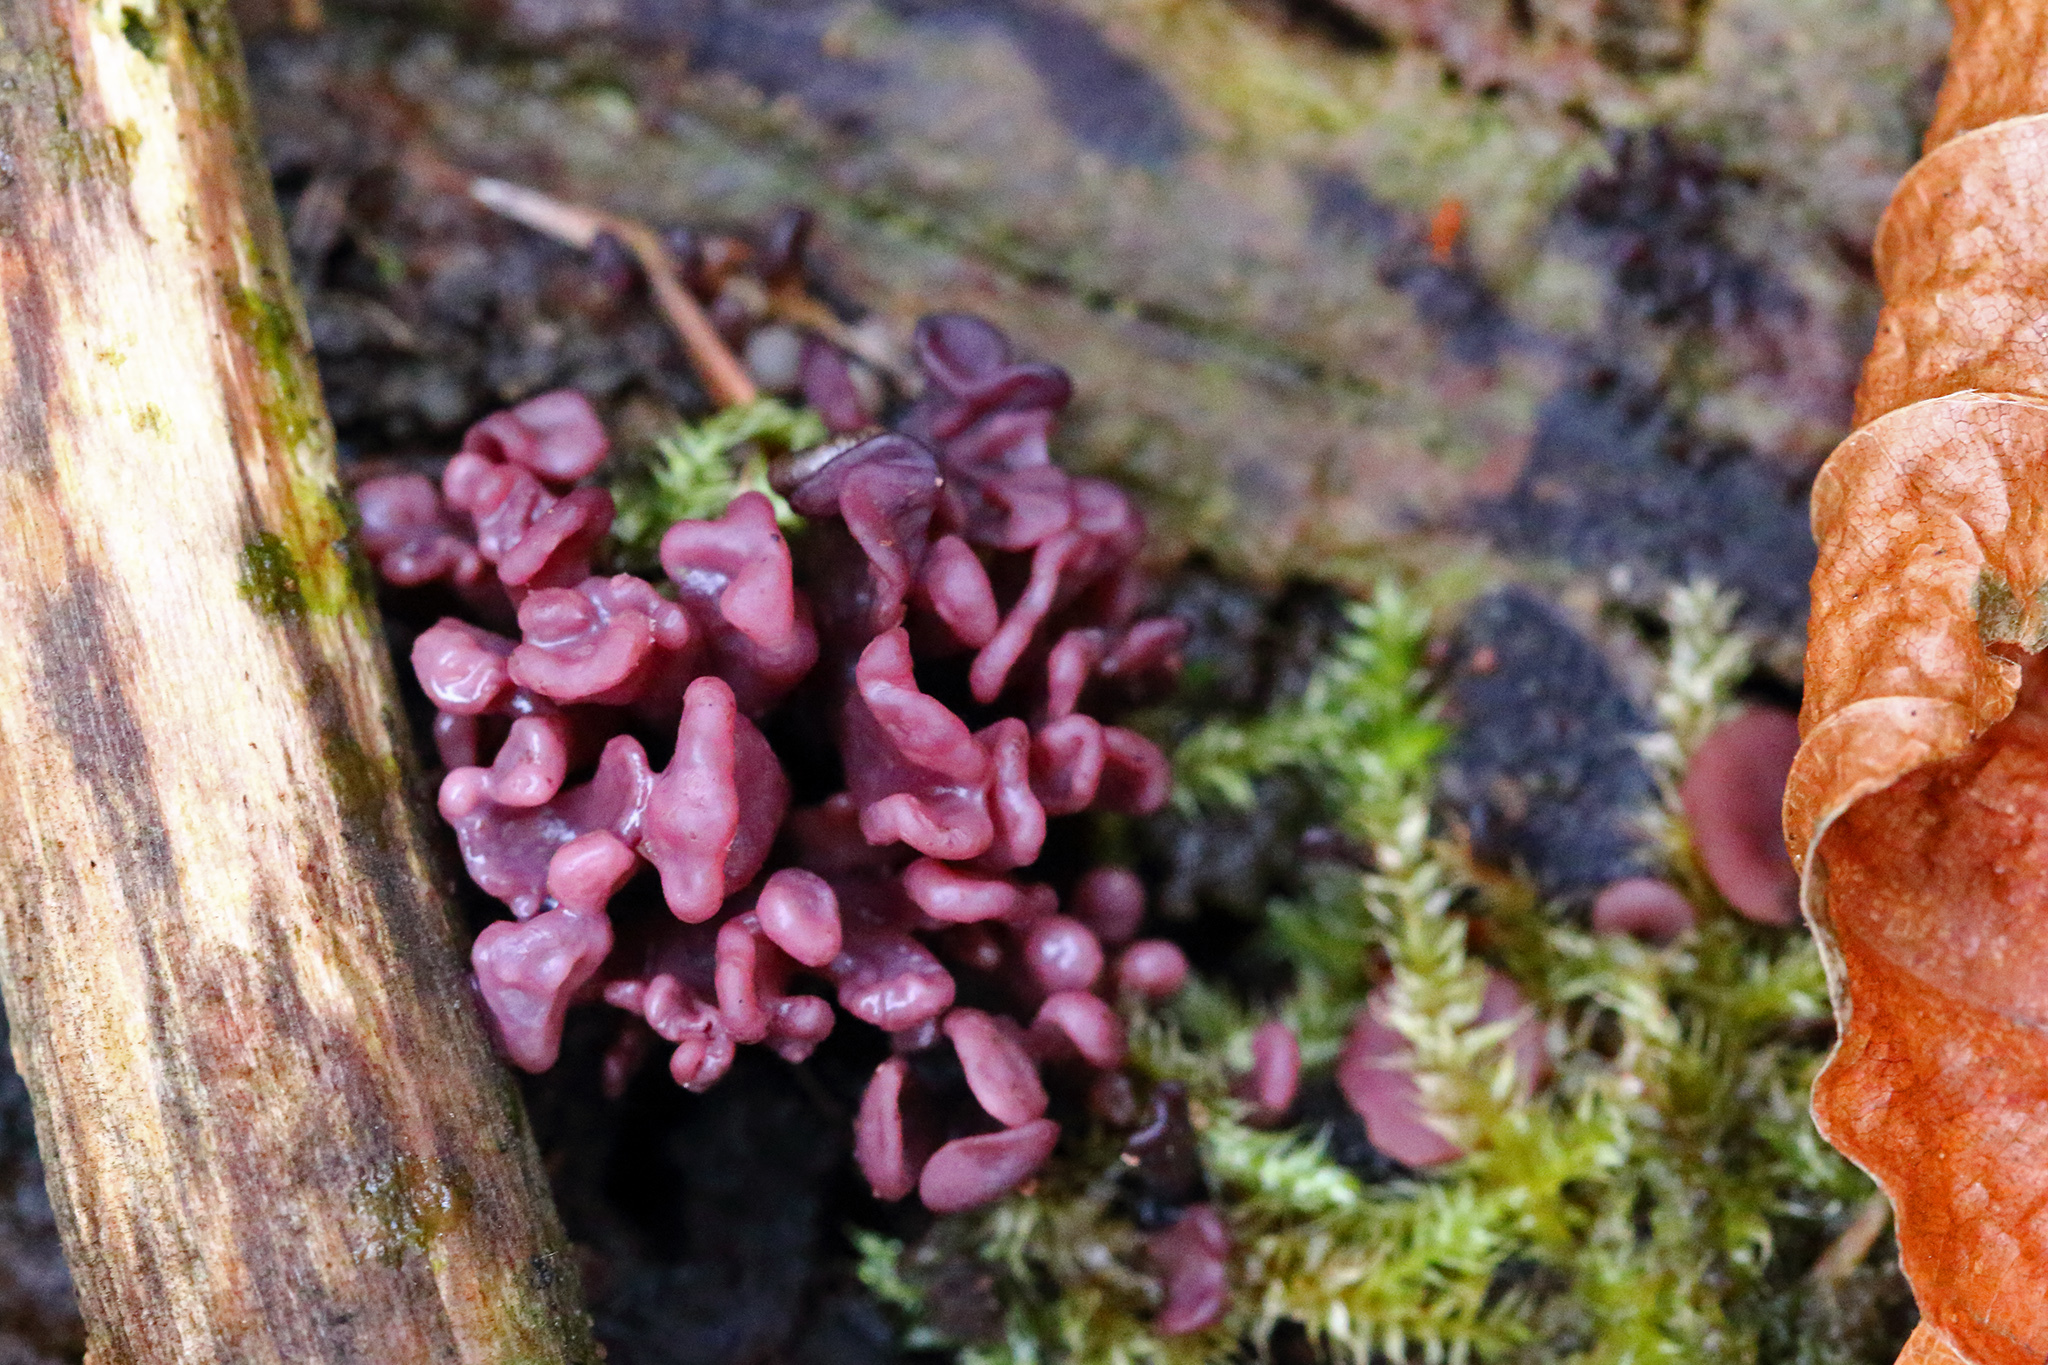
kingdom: Fungi
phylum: Ascomycota
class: Leotiomycetes
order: Helotiales
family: Gelatinodiscaceae
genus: Ascocoryne
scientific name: Ascocoryne sarcoides
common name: Purple jellydisc
